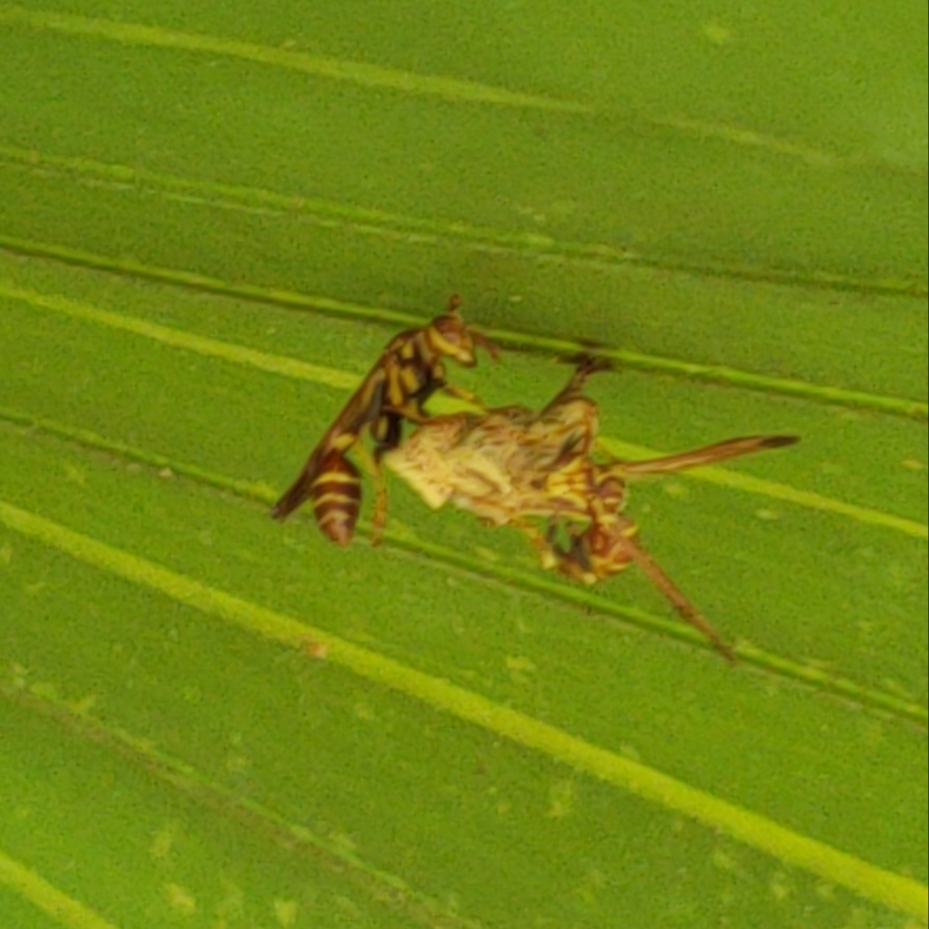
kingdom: Animalia
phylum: Arthropoda
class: Insecta
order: Hymenoptera
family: Vespidae
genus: Mischocyttarus
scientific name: Mischocyttarus mexicanus
